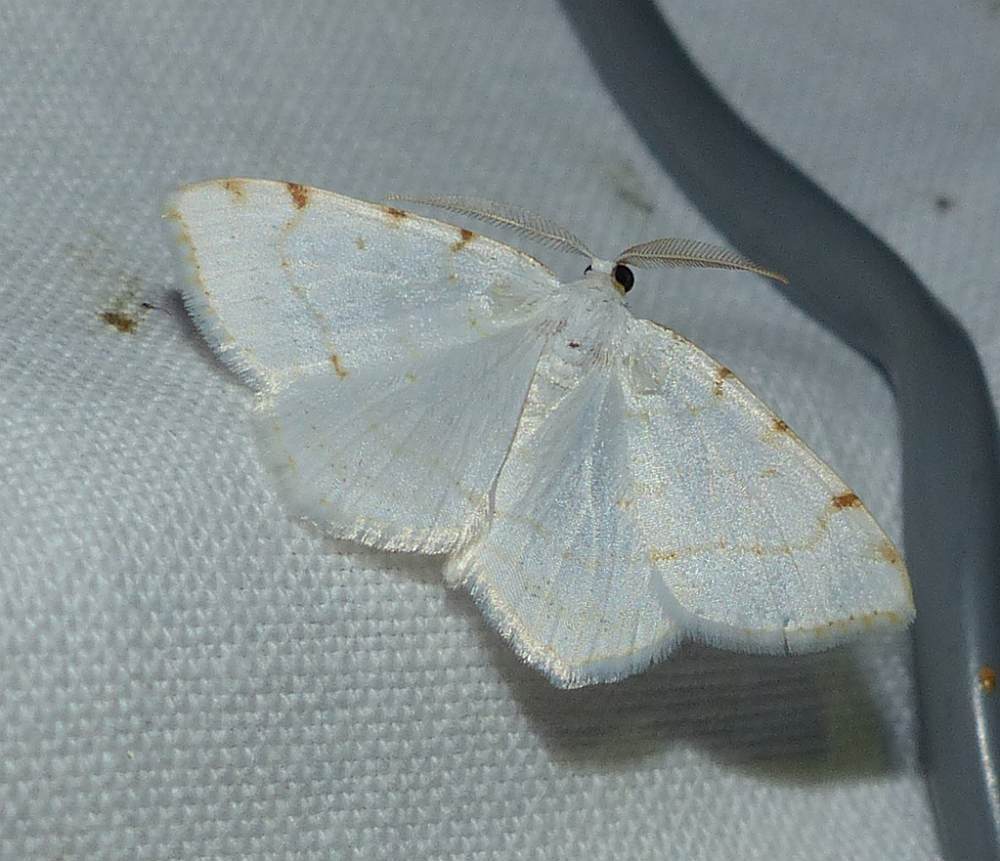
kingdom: Animalia
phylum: Arthropoda
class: Insecta
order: Lepidoptera
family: Geometridae
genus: Macaria
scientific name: Macaria pustularia
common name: Lesser maple spanworm moth
